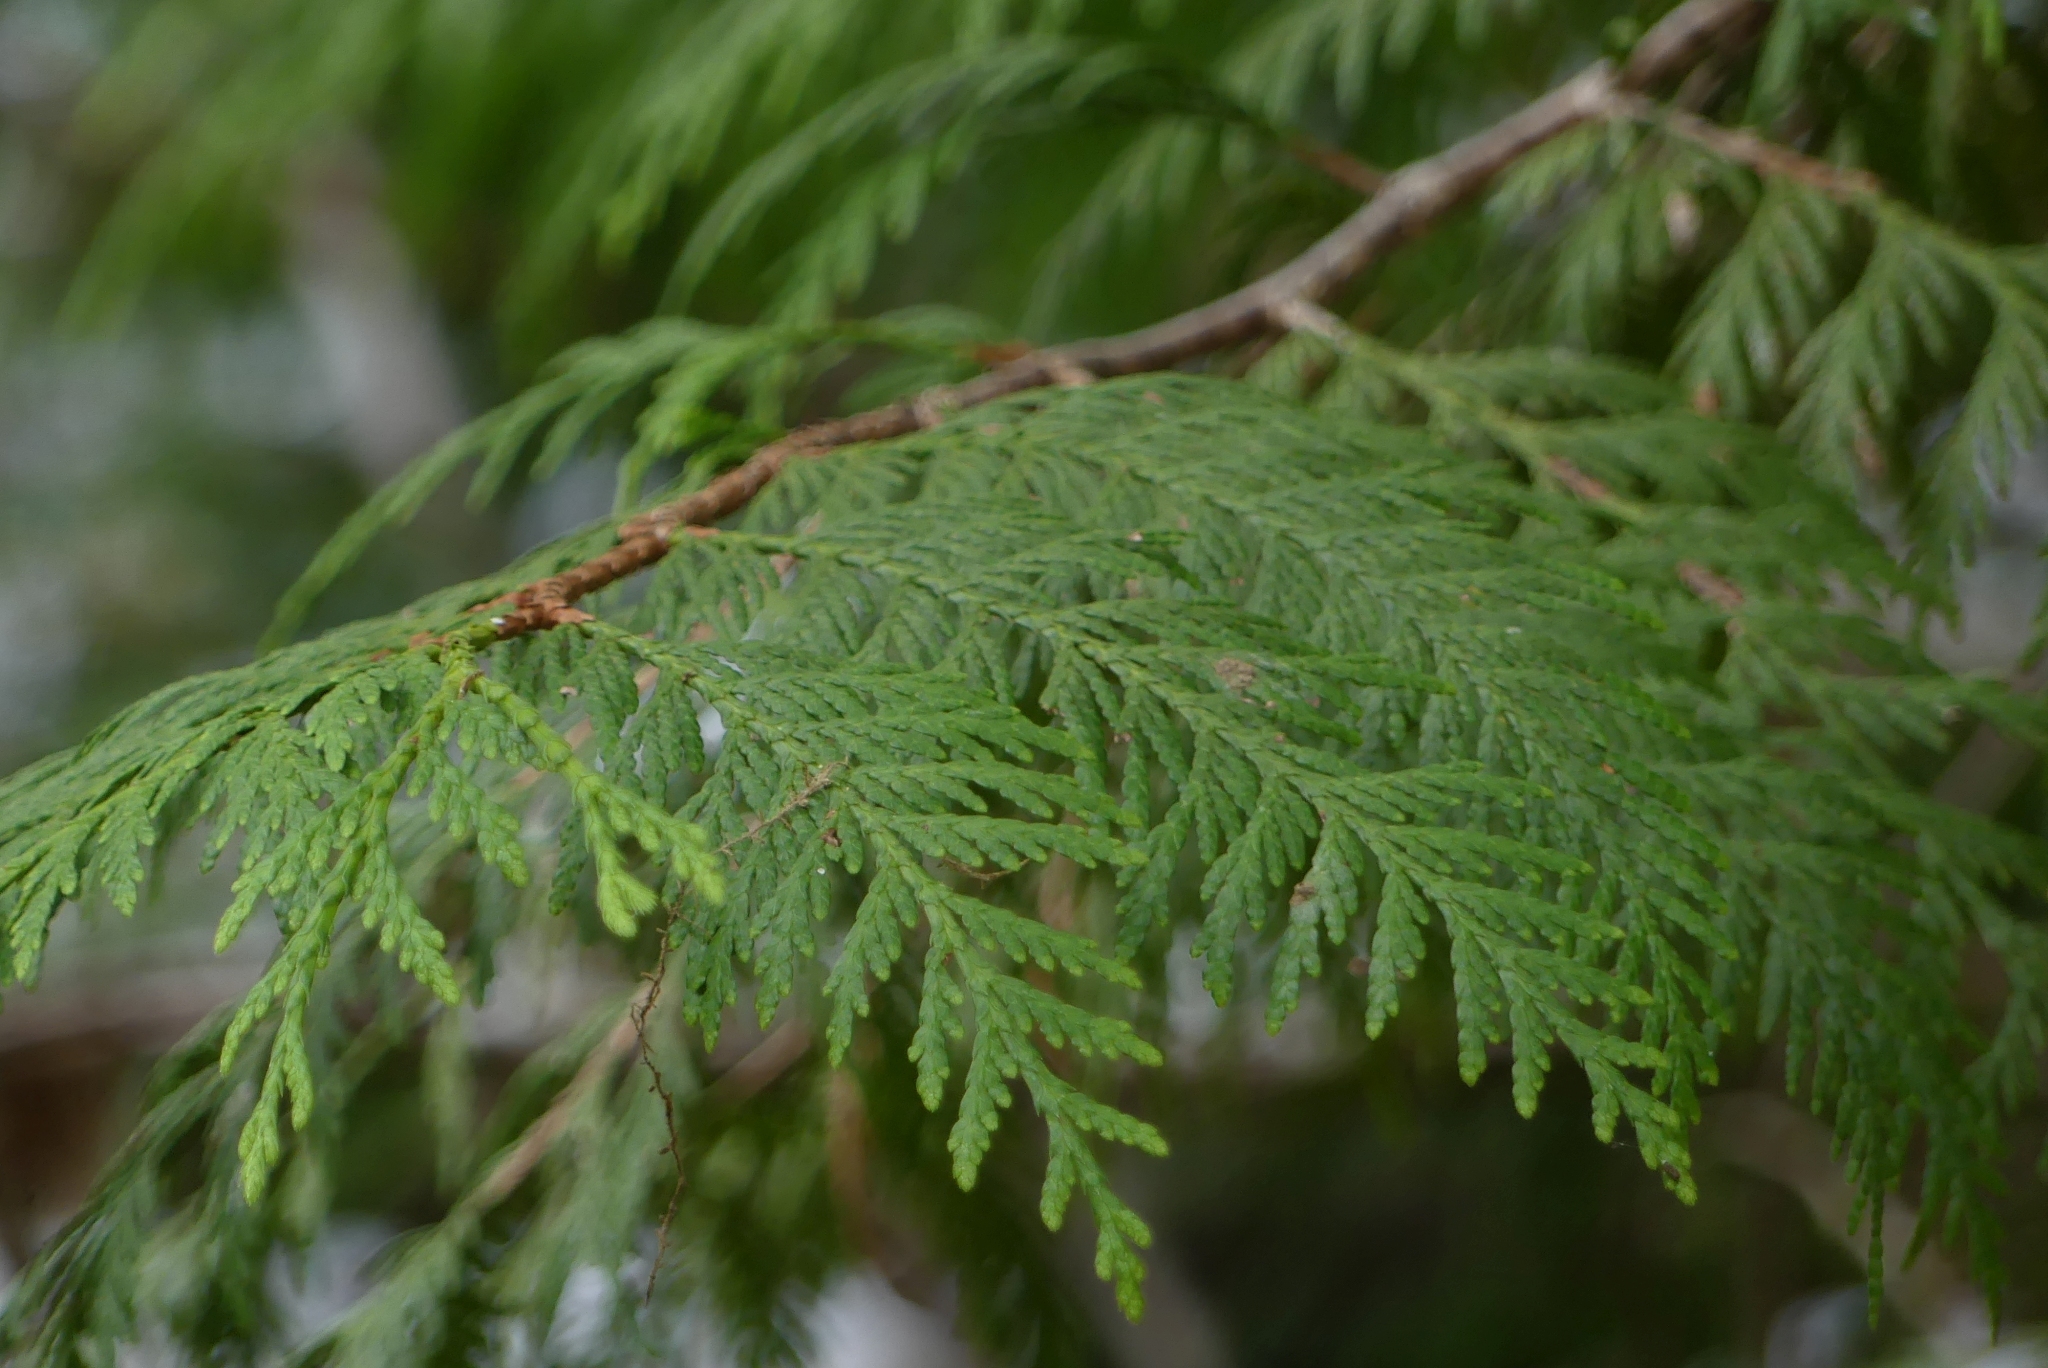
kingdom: Plantae
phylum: Tracheophyta
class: Pinopsida
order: Pinales
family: Cupressaceae
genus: Thuja
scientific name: Thuja plicata
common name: Western red-cedar
